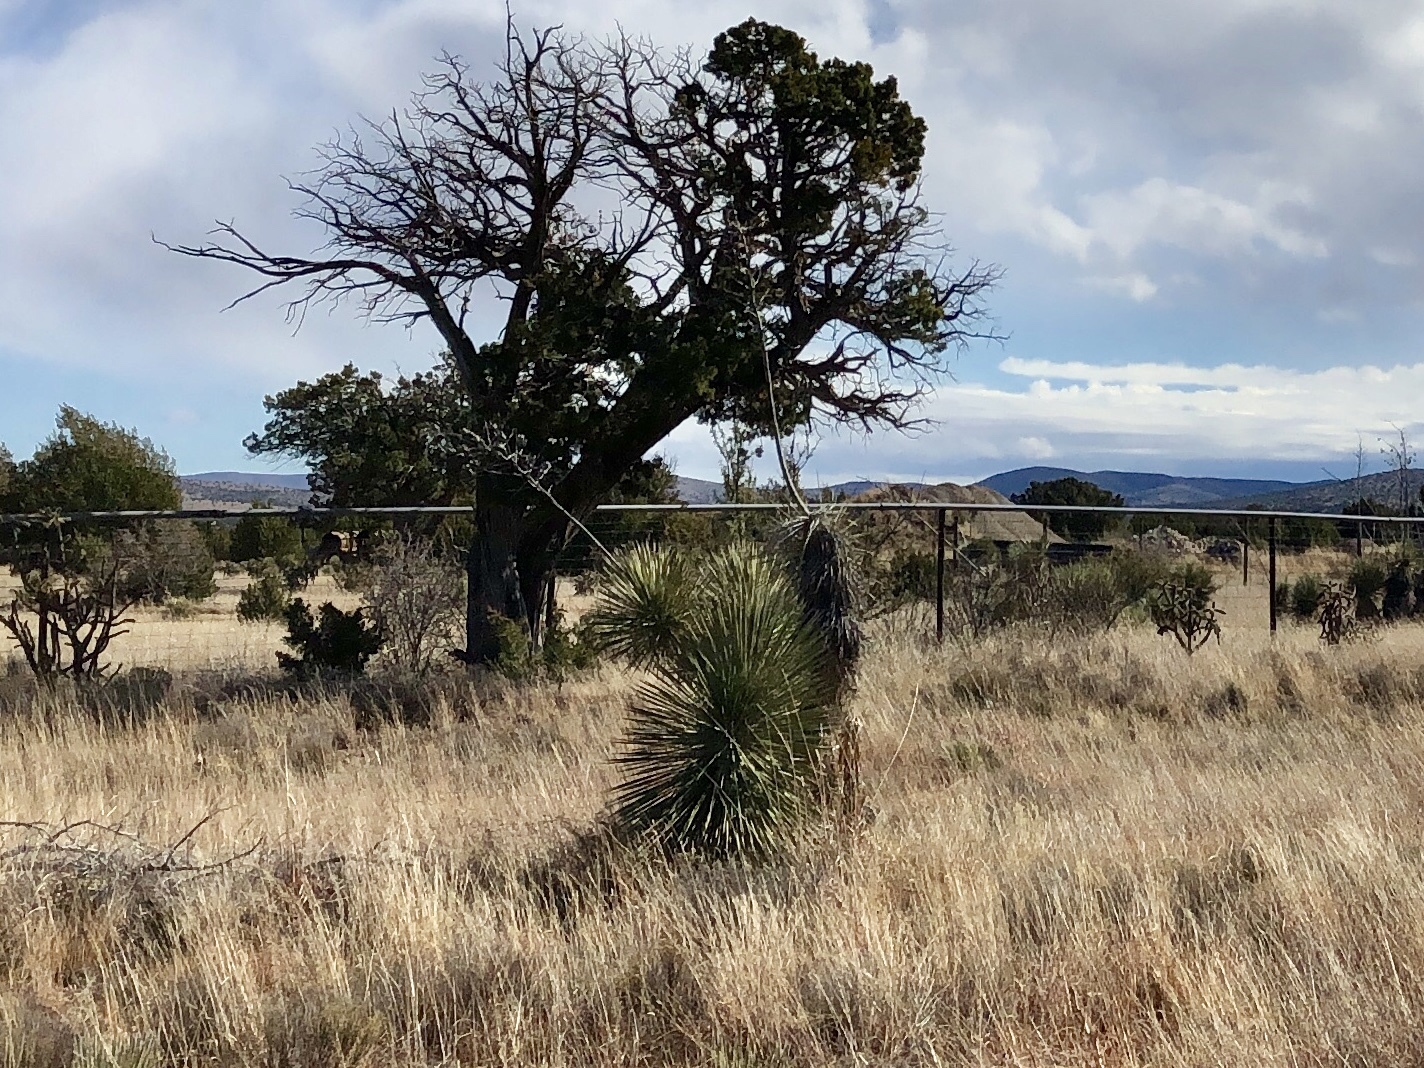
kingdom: Plantae
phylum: Tracheophyta
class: Liliopsida
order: Asparagales
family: Asparagaceae
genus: Yucca
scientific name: Yucca elata
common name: Palmella
